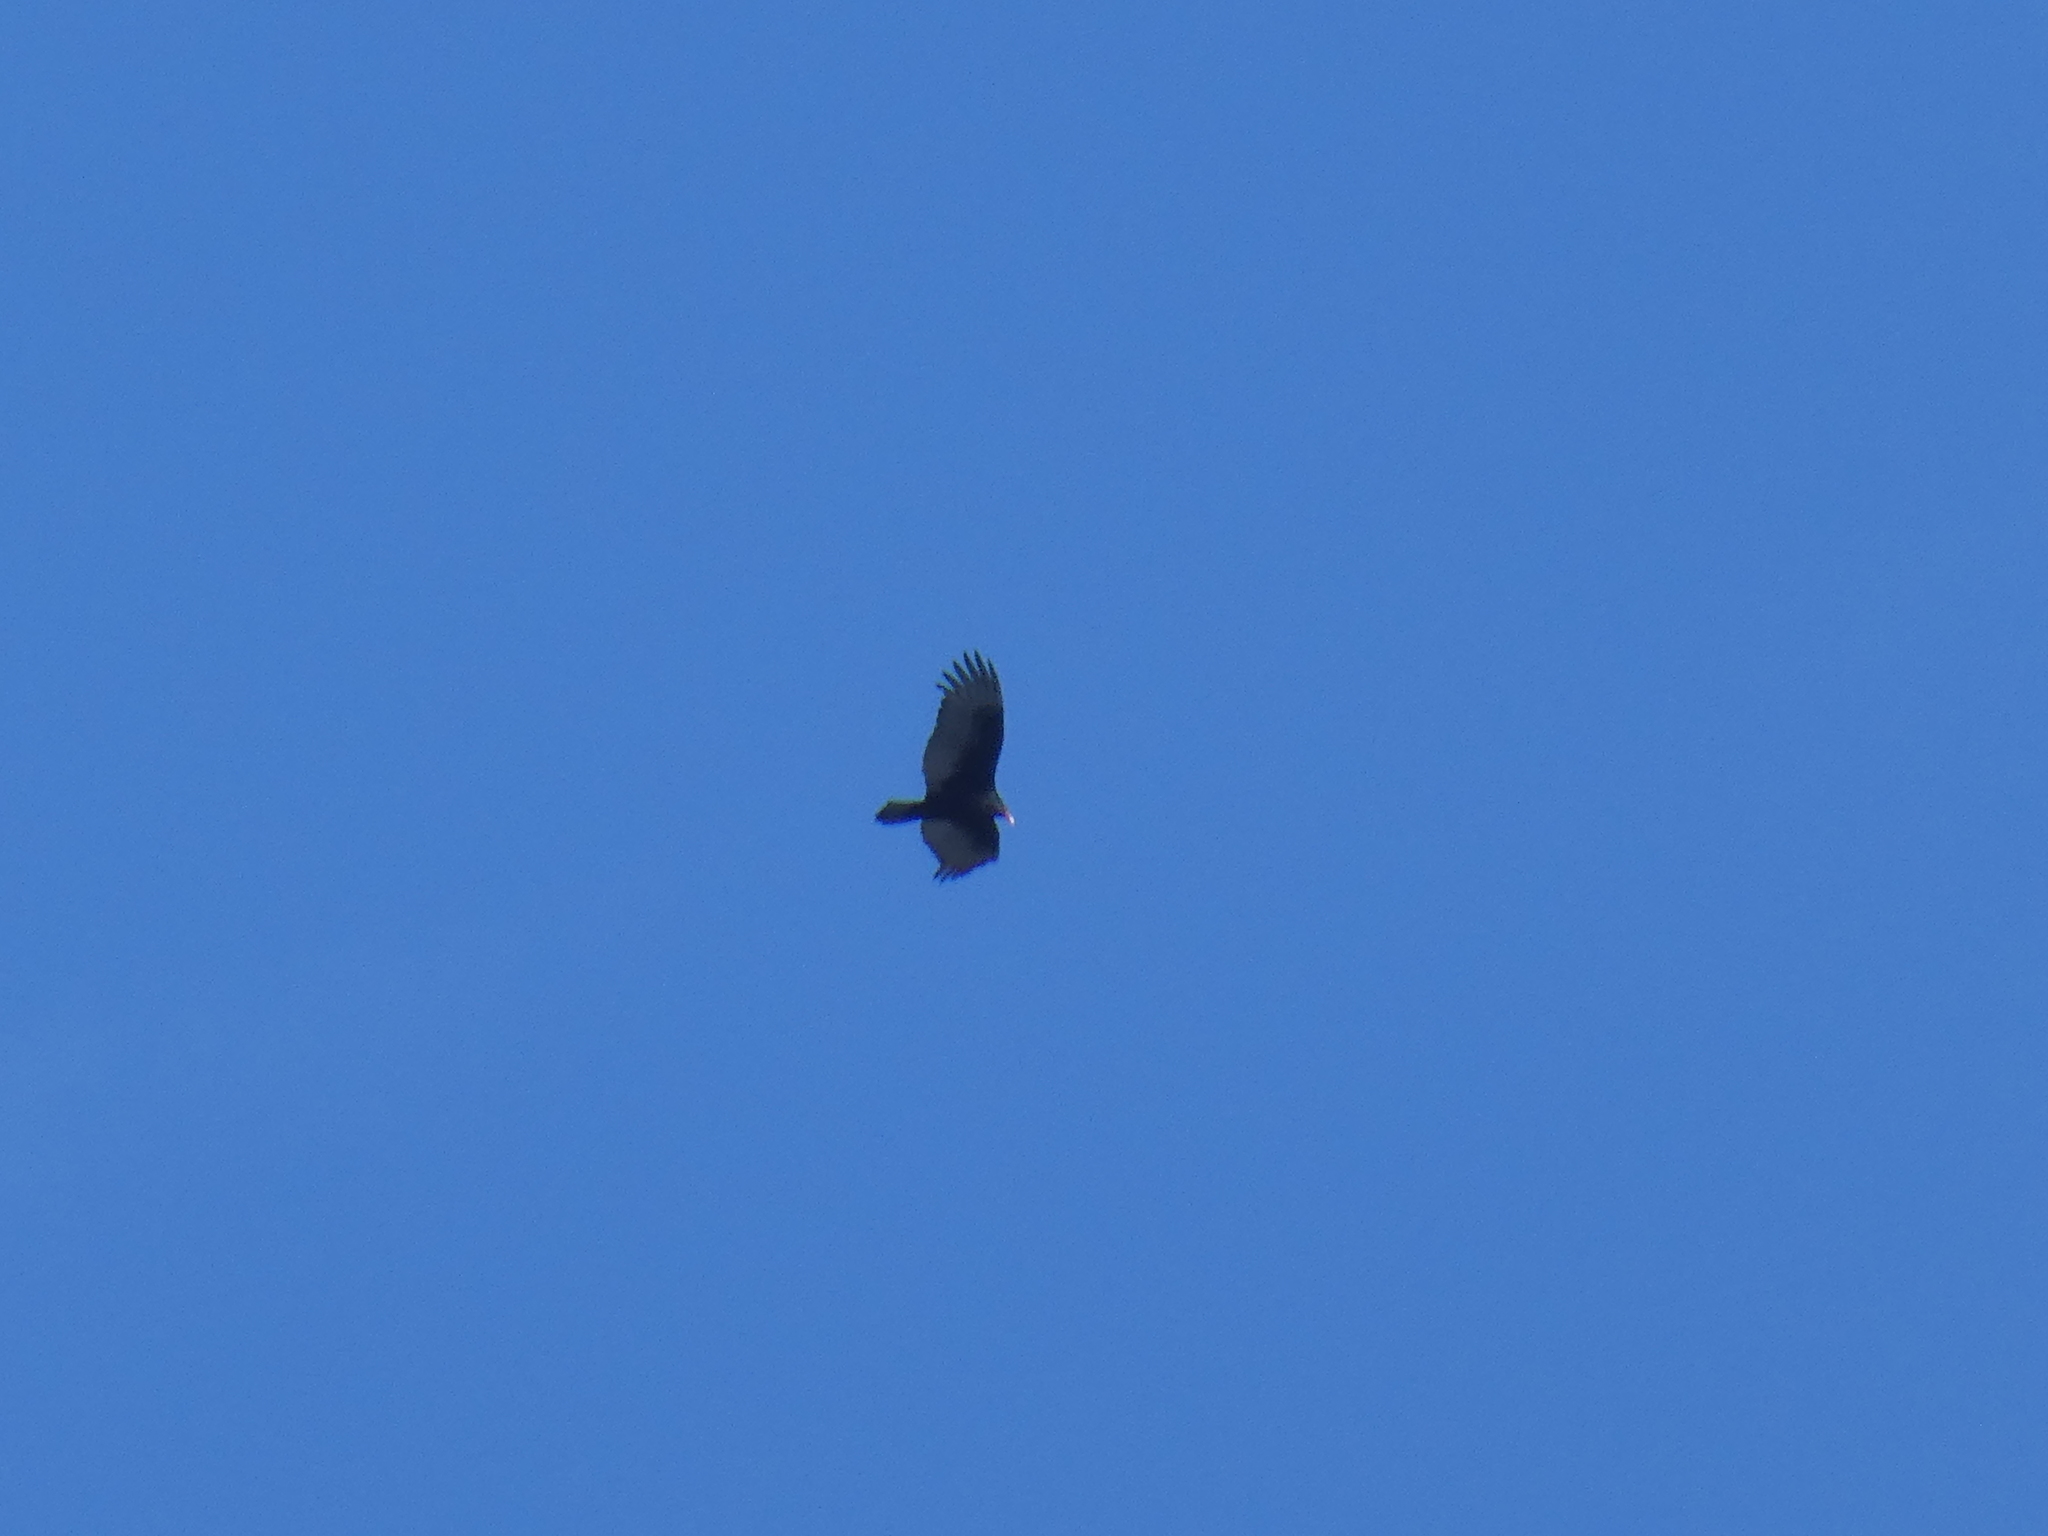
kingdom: Animalia
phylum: Chordata
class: Aves
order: Accipitriformes
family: Cathartidae
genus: Cathartes
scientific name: Cathartes aura
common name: Turkey vulture
